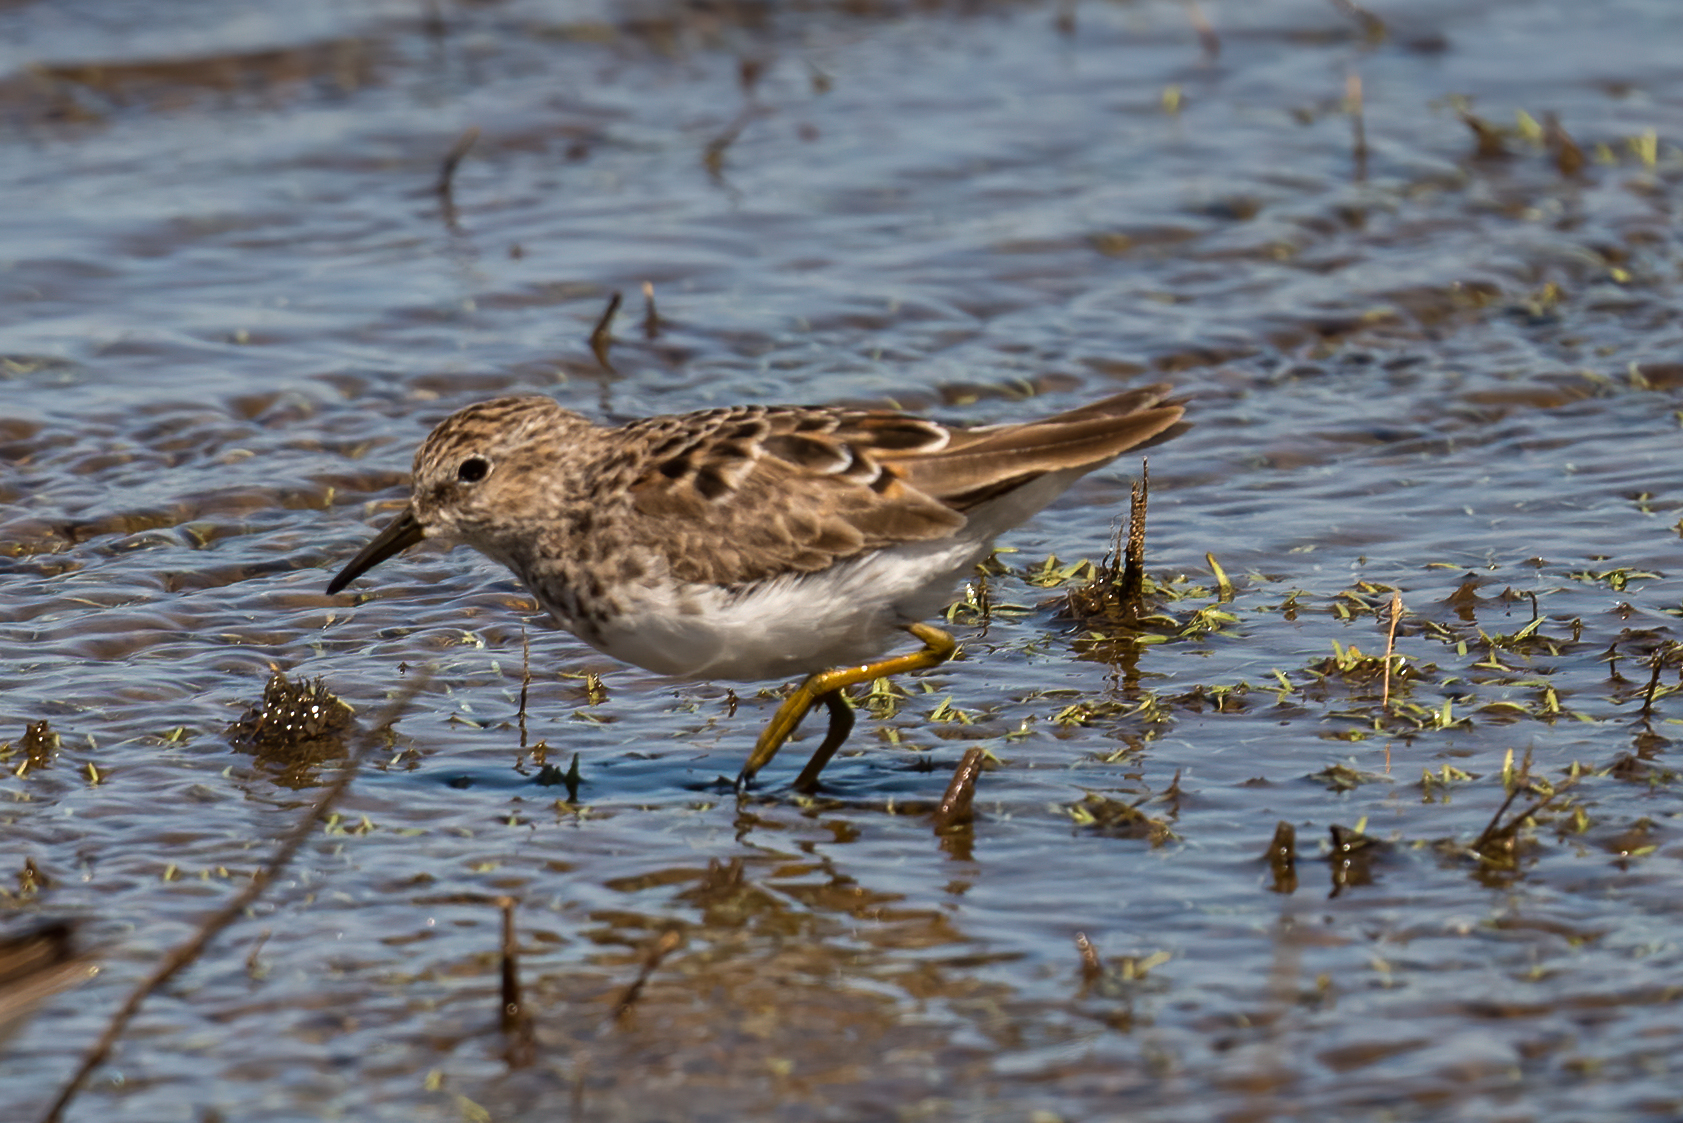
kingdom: Animalia
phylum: Chordata
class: Aves
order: Charadriiformes
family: Scolopacidae
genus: Calidris
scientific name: Calidris minutilla
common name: Least sandpiper
